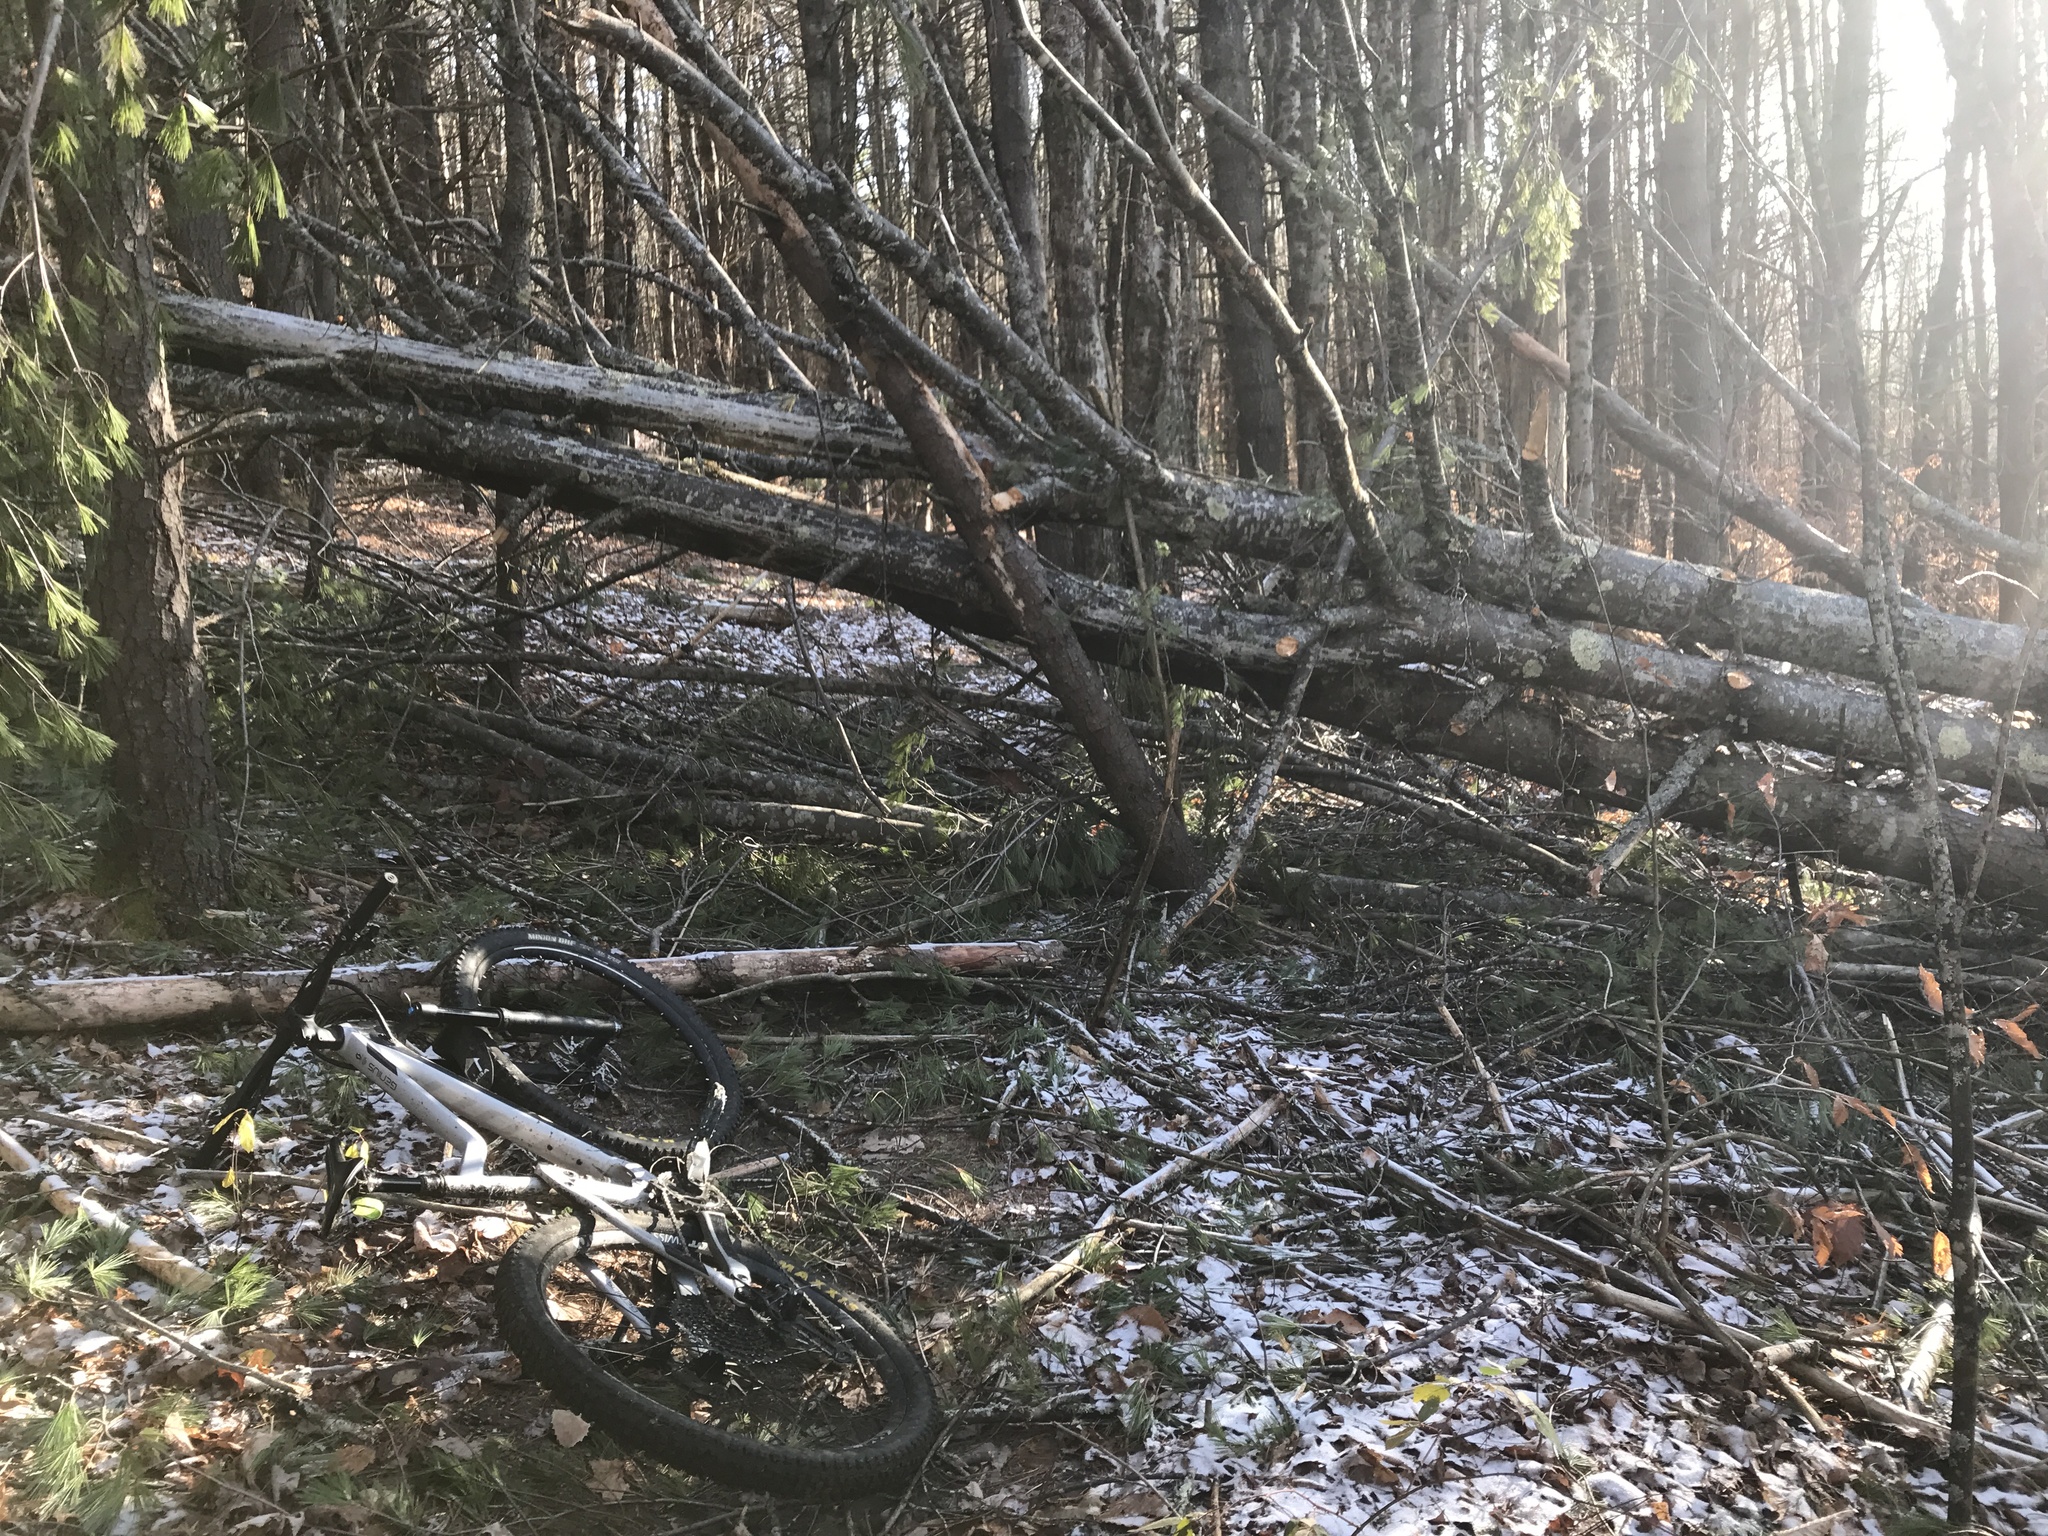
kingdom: Plantae
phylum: Tracheophyta
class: Pinopsida
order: Pinales
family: Pinaceae
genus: Pinus
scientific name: Pinus strobus
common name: Weymouth pine
